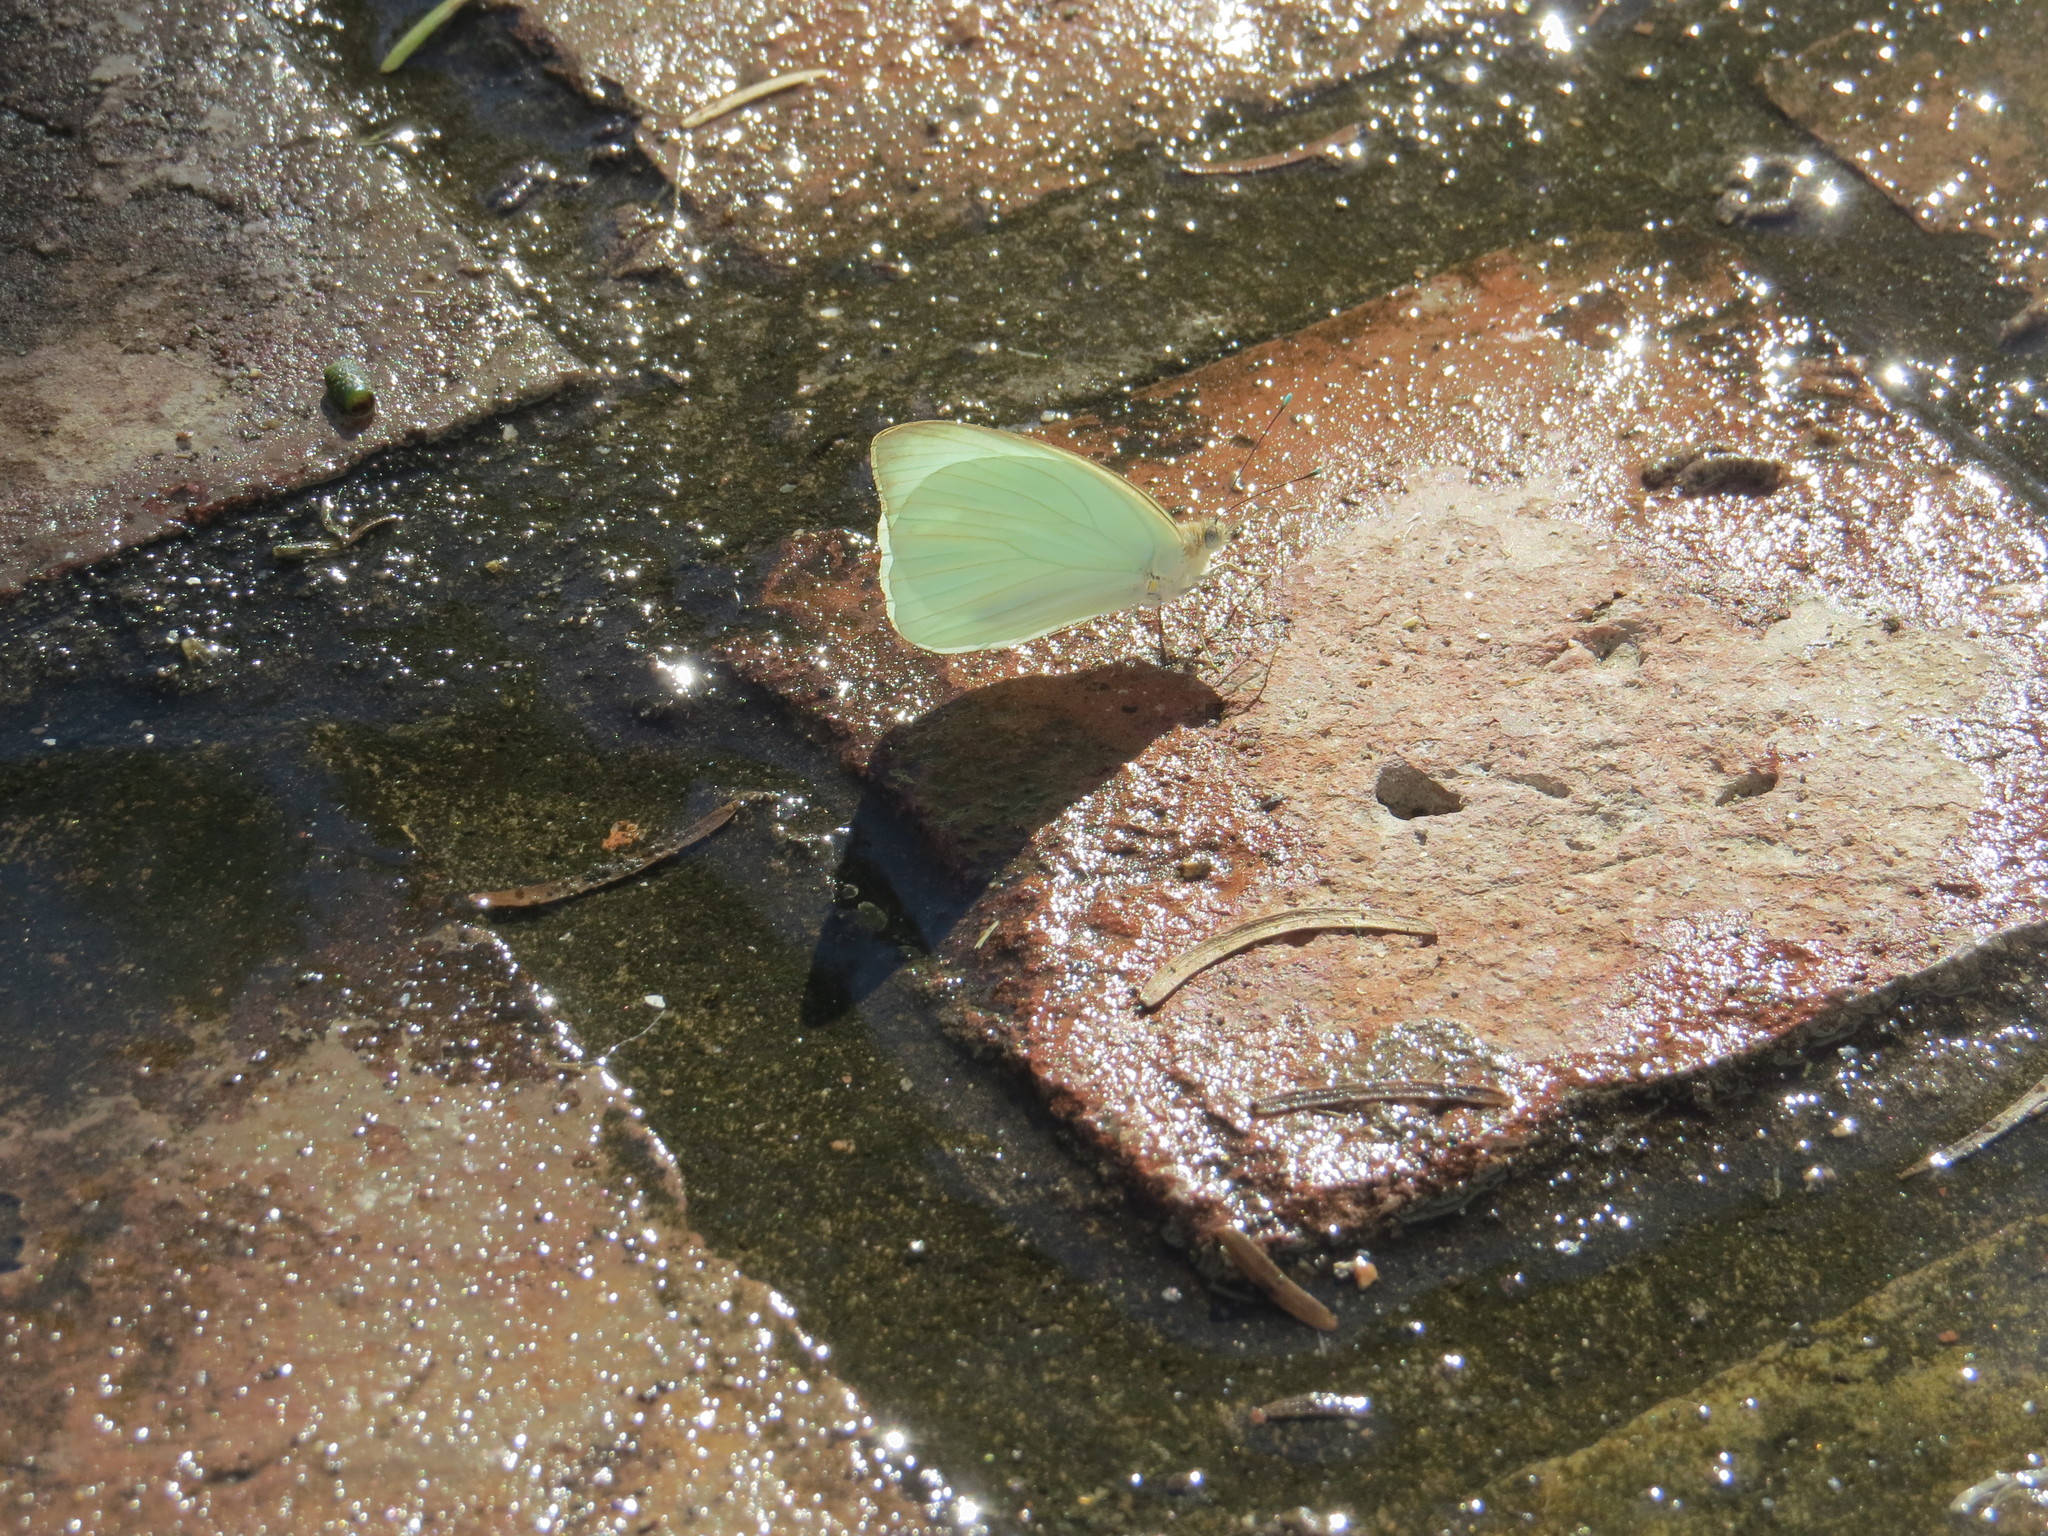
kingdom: Animalia
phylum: Arthropoda
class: Insecta
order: Lepidoptera
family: Pieridae
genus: Ascia
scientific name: Ascia monuste
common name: Great southern white
